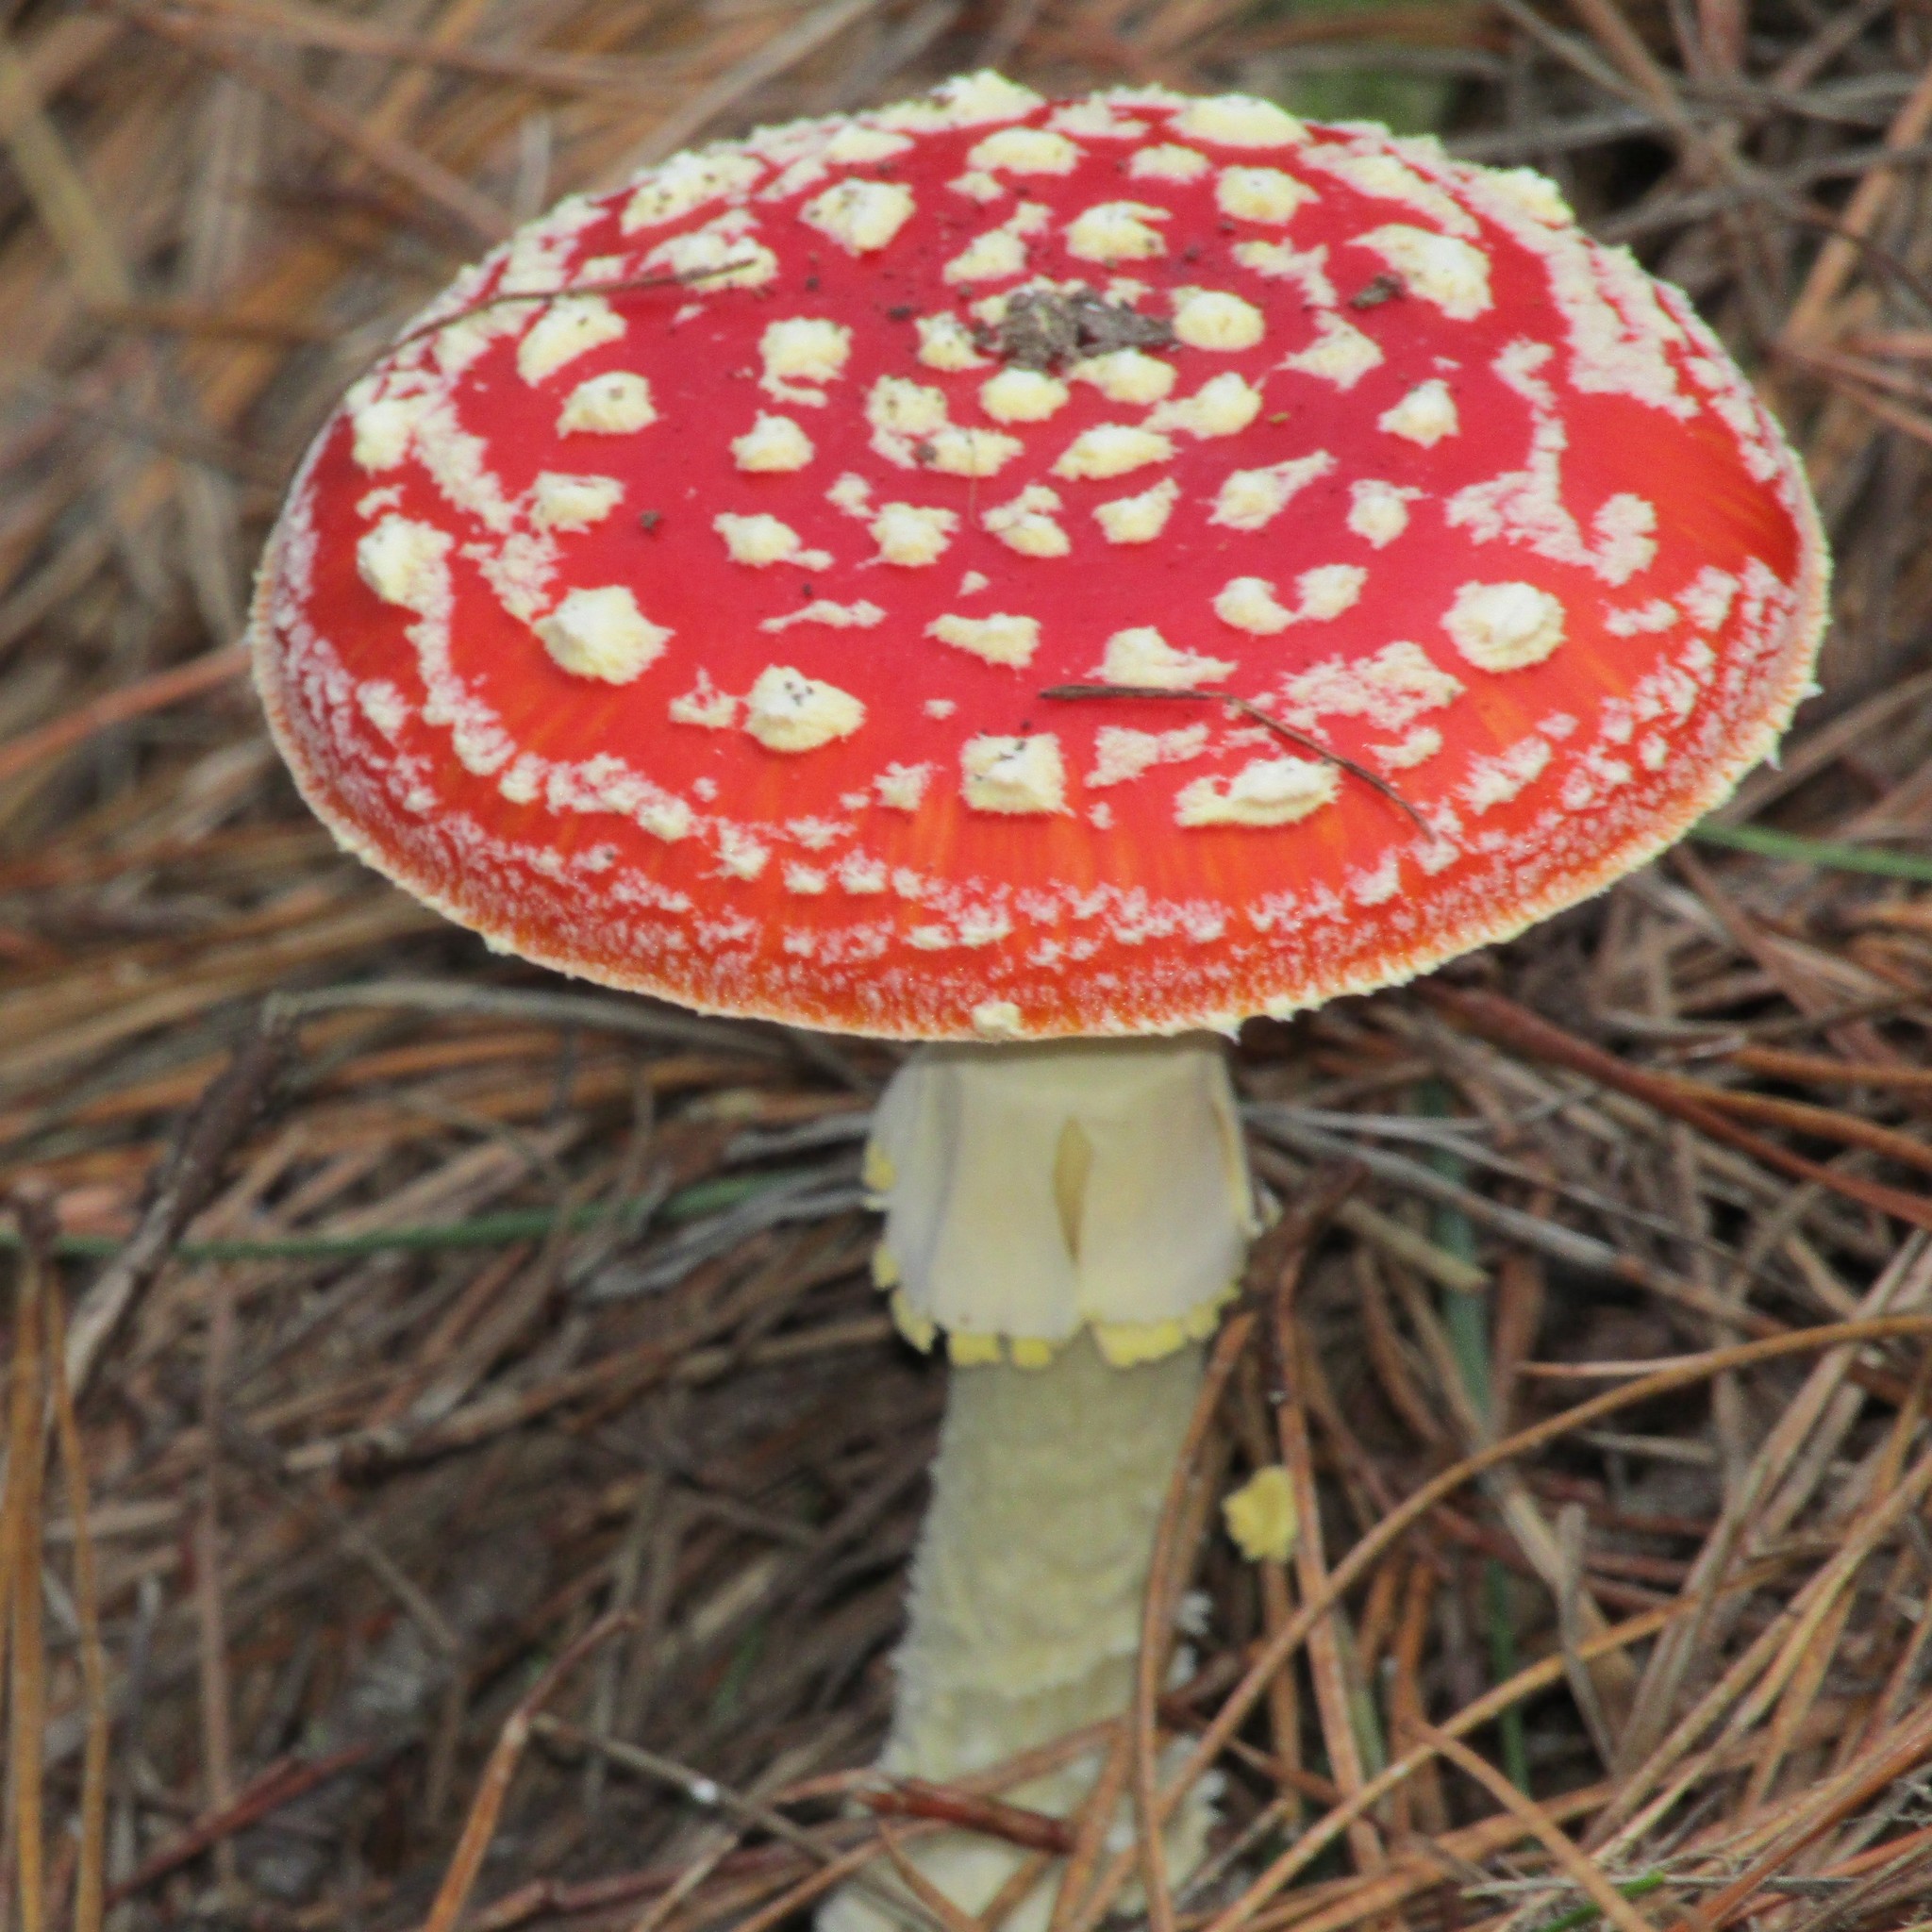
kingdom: Fungi
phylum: Basidiomycota
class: Agaricomycetes
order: Agaricales
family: Amanitaceae
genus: Amanita
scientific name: Amanita muscaria
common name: Fly agaric
